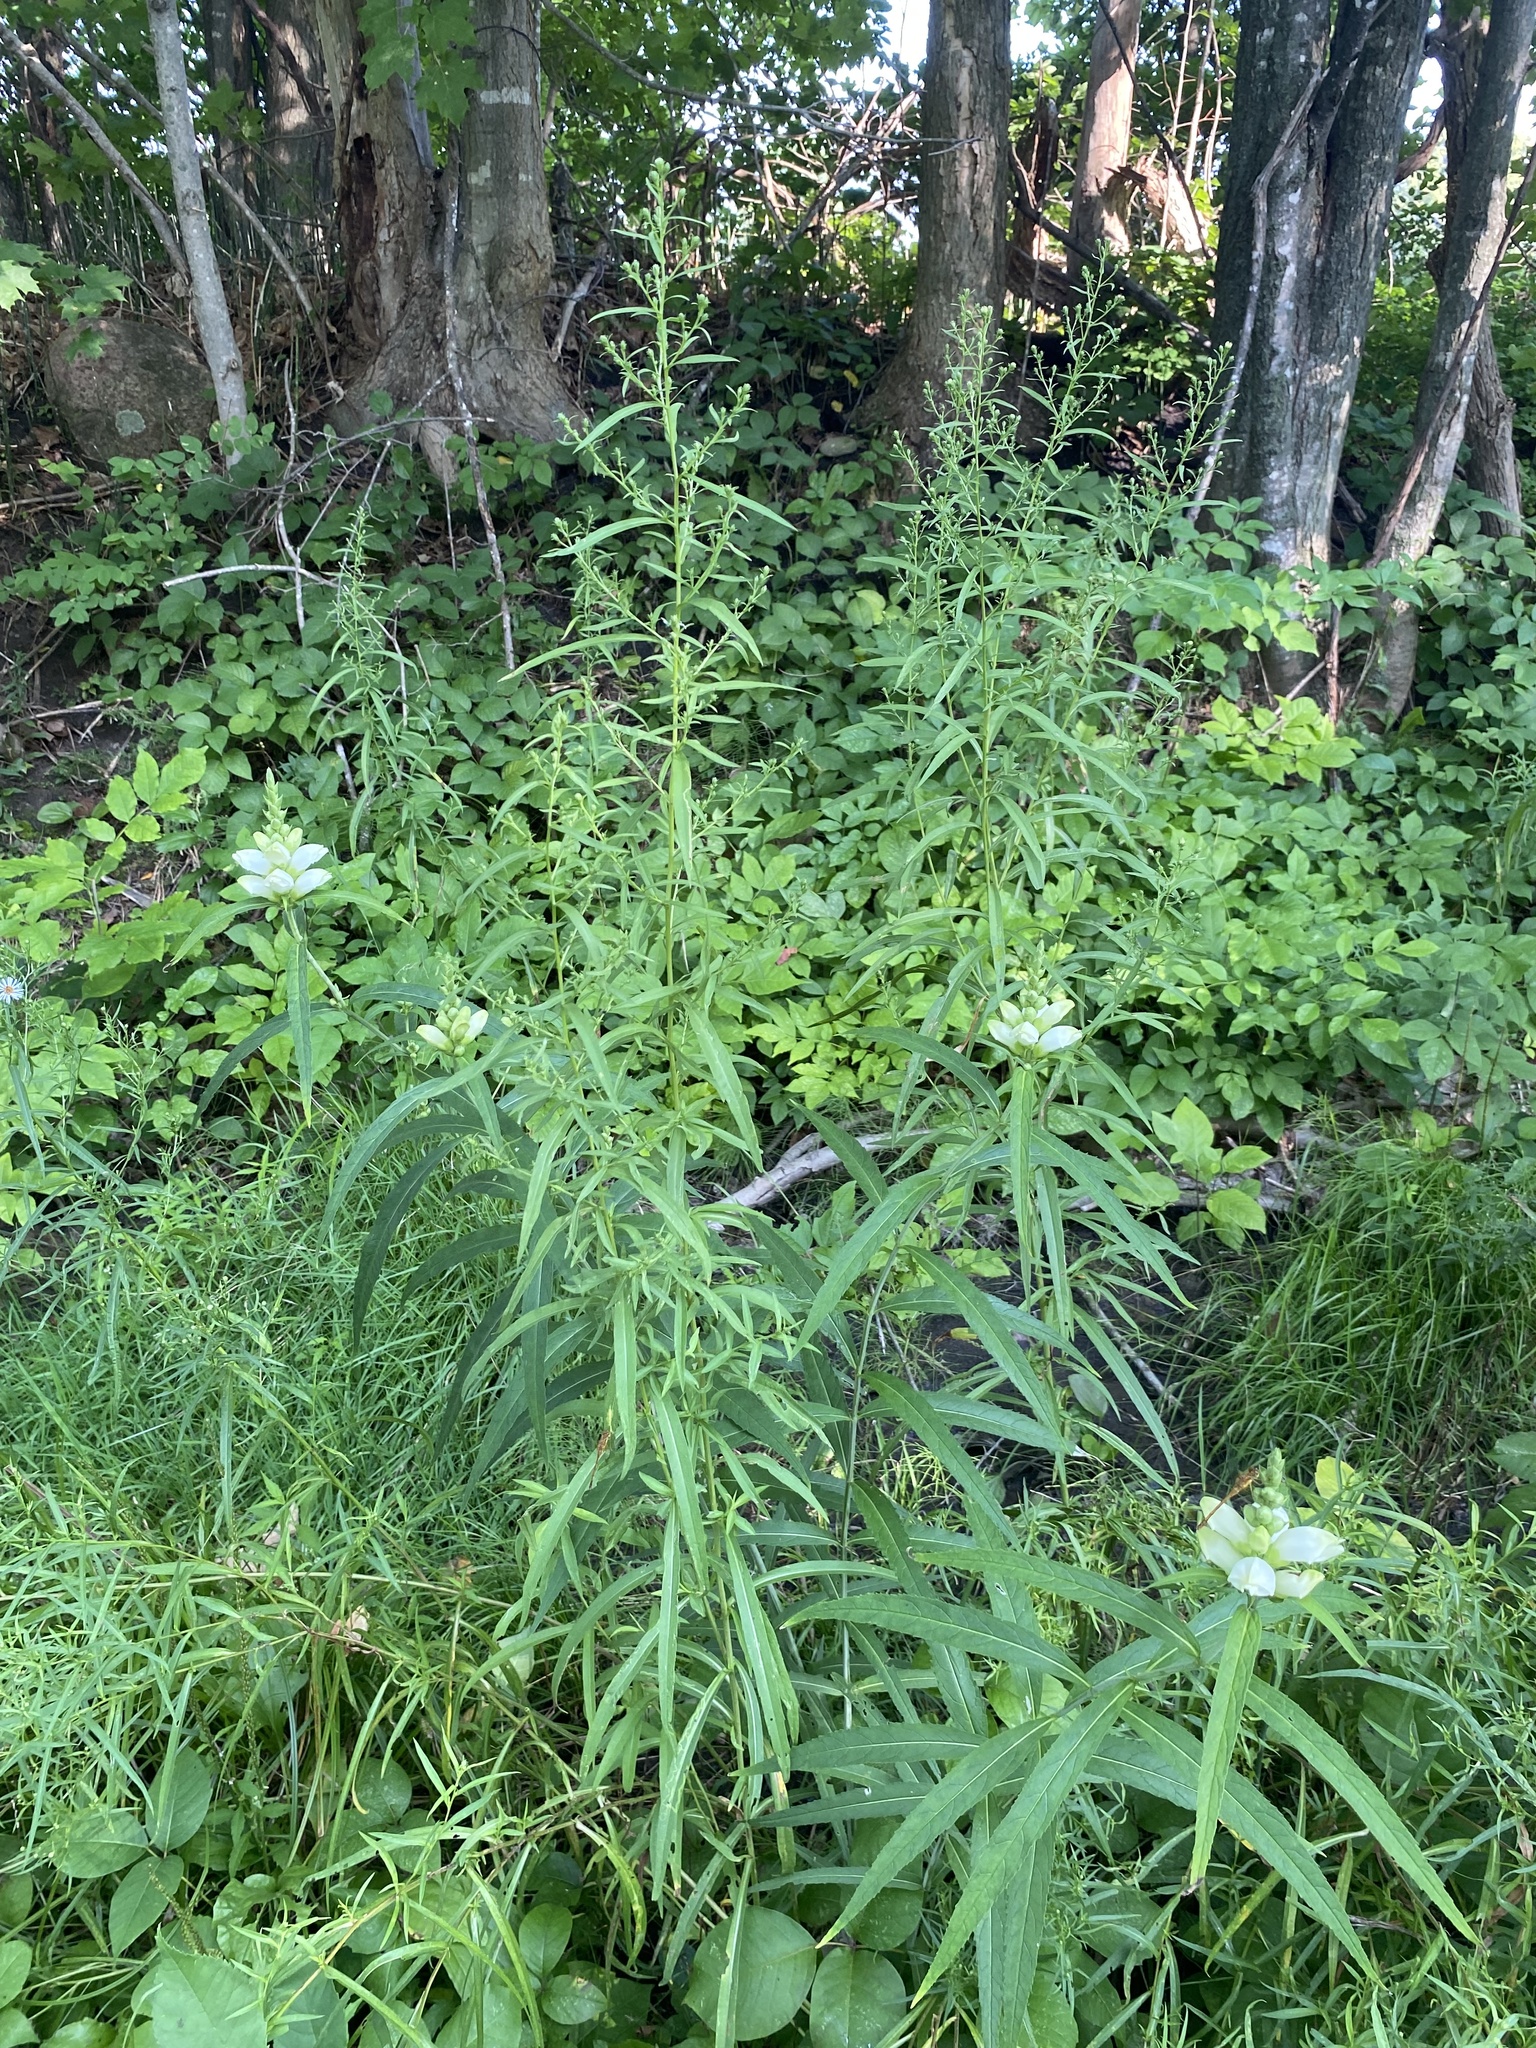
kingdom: Plantae
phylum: Tracheophyta
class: Magnoliopsida
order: Lamiales
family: Plantaginaceae
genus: Chelone
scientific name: Chelone glabra
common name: Snakehead
